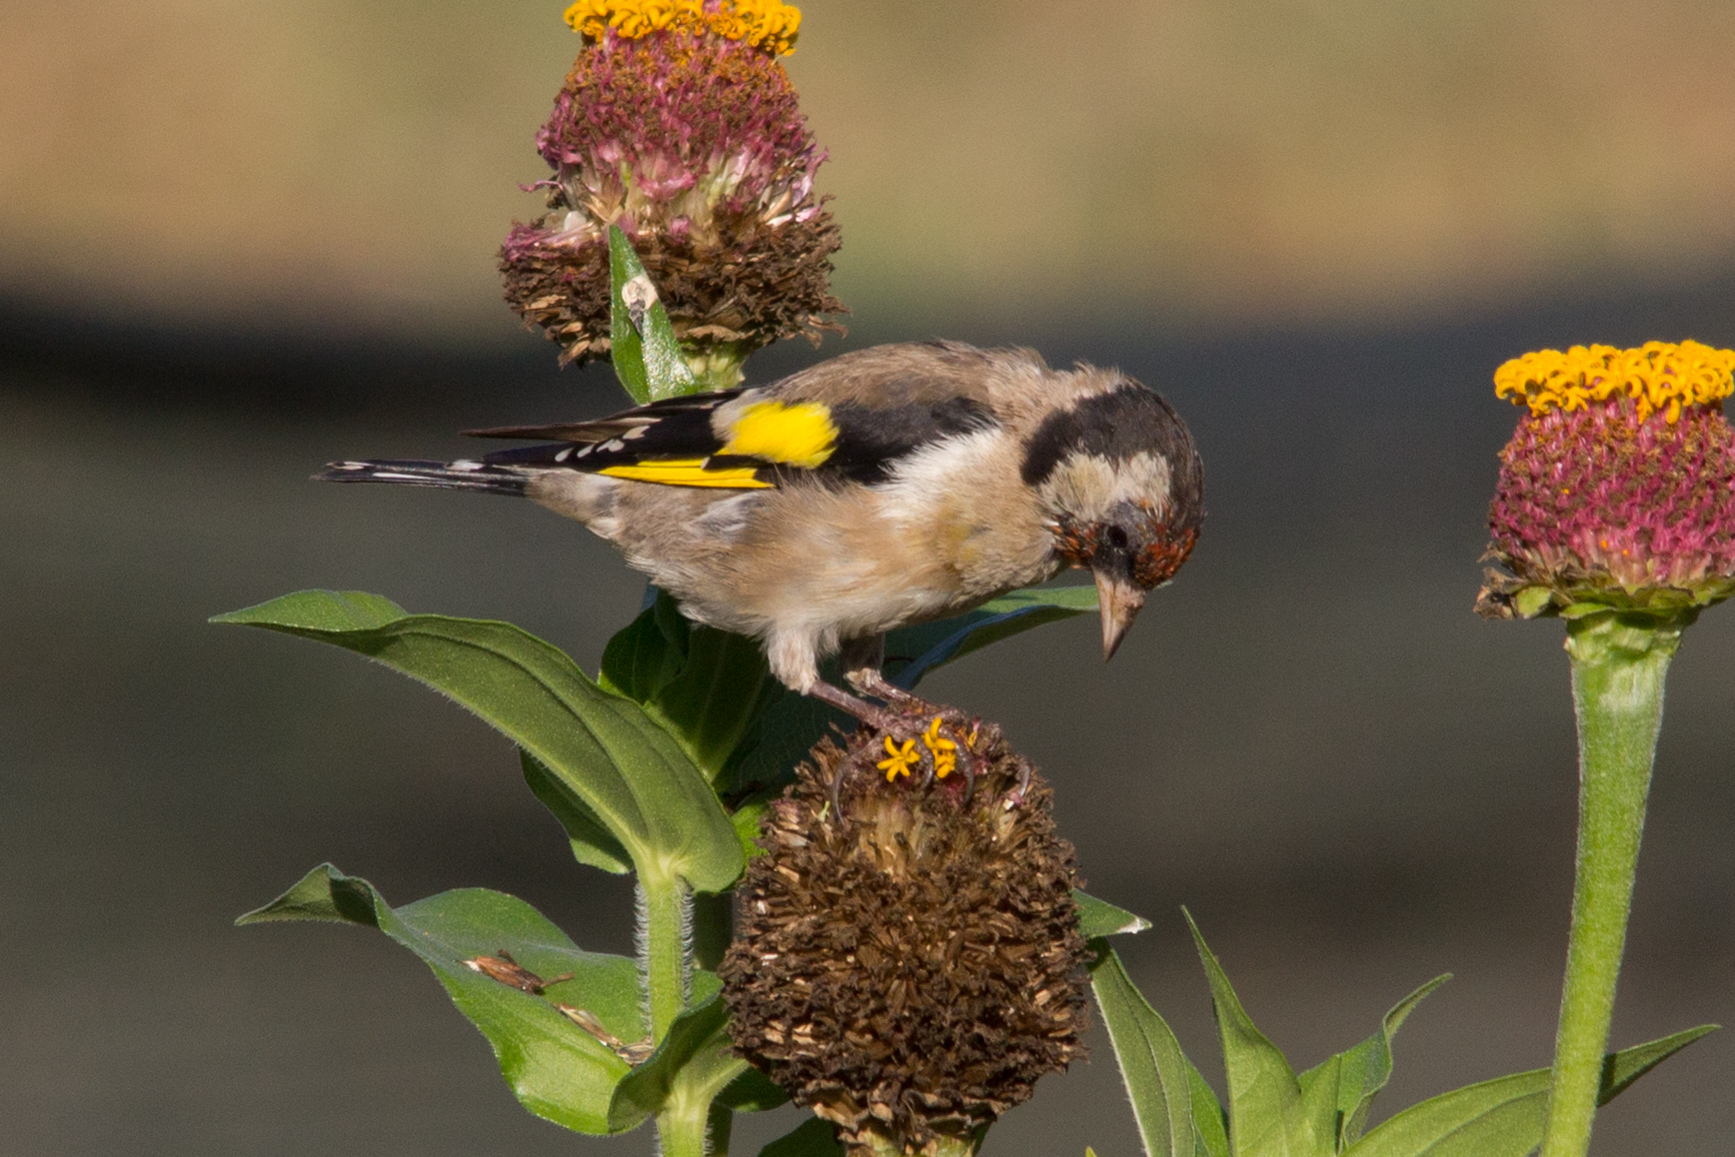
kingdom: Animalia
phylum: Chordata
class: Aves
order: Passeriformes
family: Fringillidae
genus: Carduelis
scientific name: Carduelis carduelis
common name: European goldfinch
